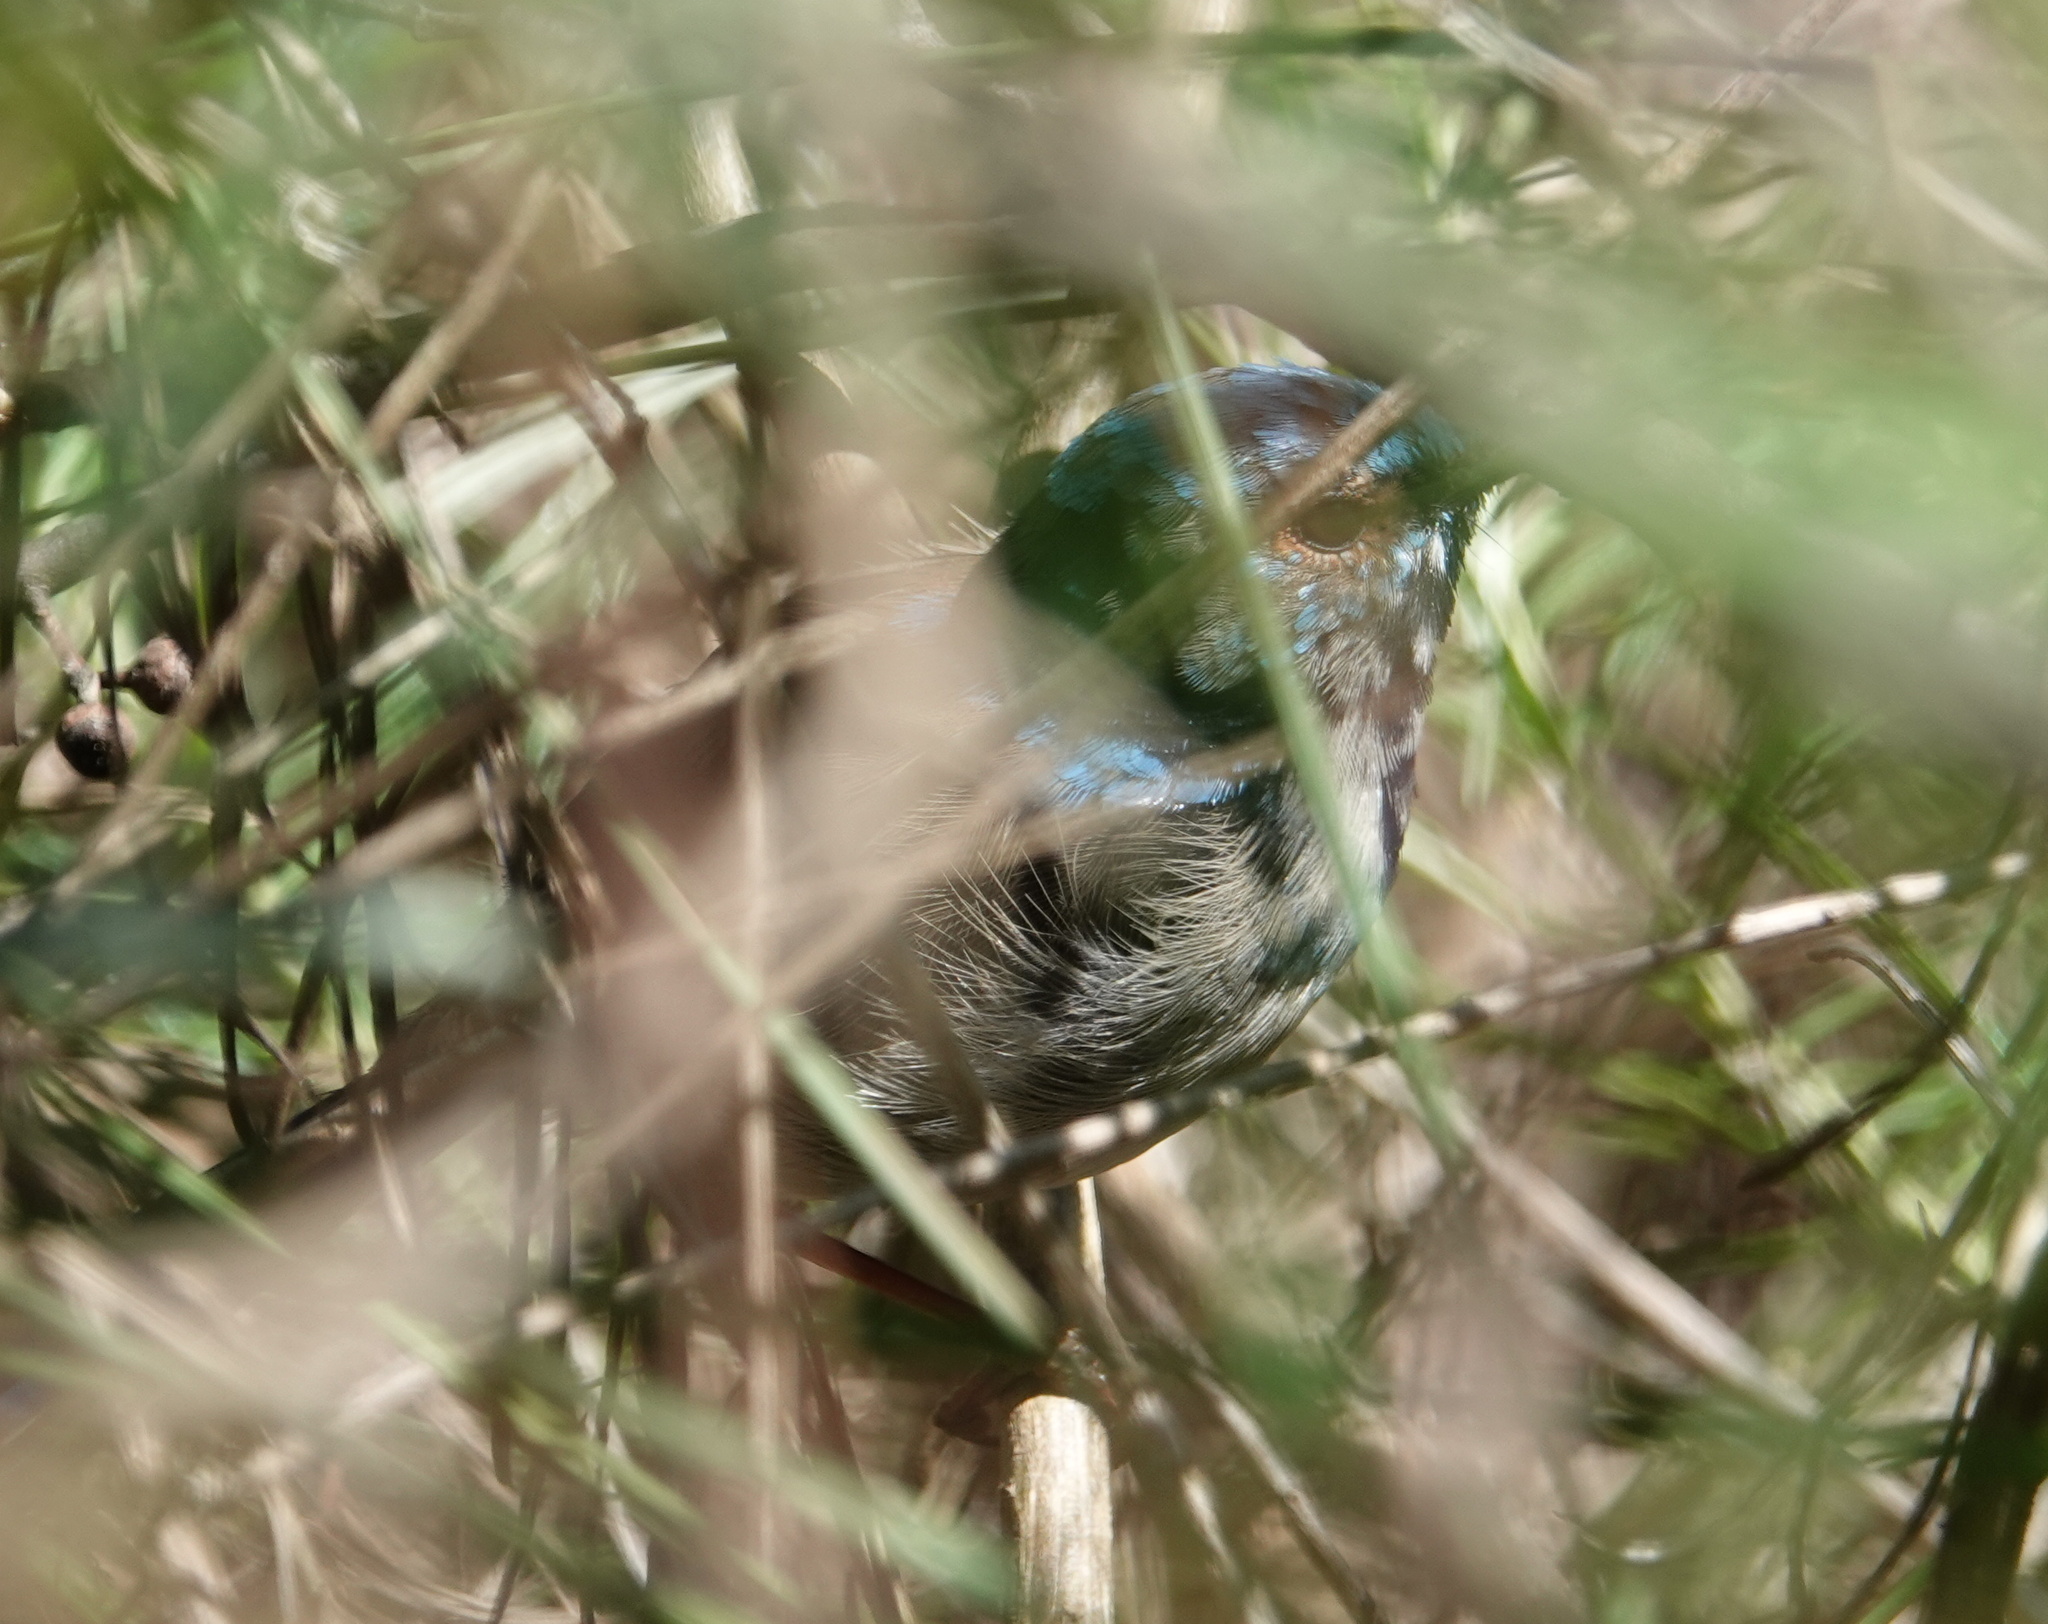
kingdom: Animalia
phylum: Chordata
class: Aves
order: Passeriformes
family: Maluridae
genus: Malurus
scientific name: Malurus cyaneus
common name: Superb fairywren
